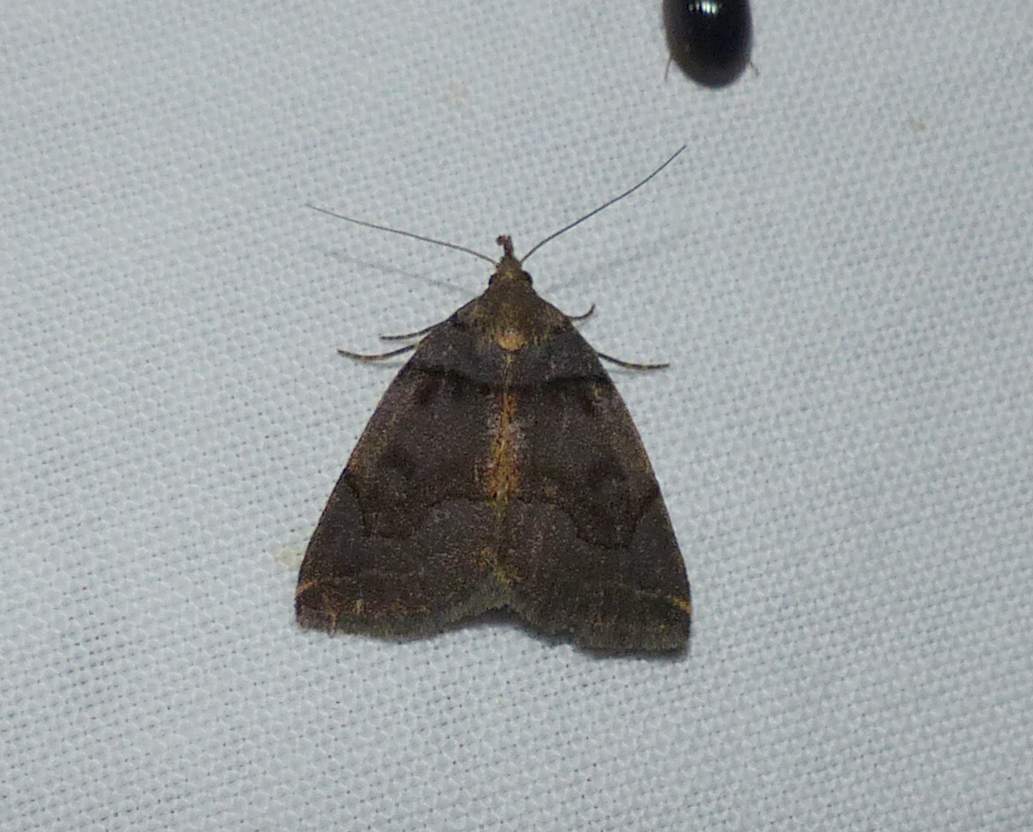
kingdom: Animalia
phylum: Arthropoda
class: Insecta
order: Lepidoptera
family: Erebidae
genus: Zanclognatha
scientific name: Zanclognatha laevigata
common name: Variable fan-foot
